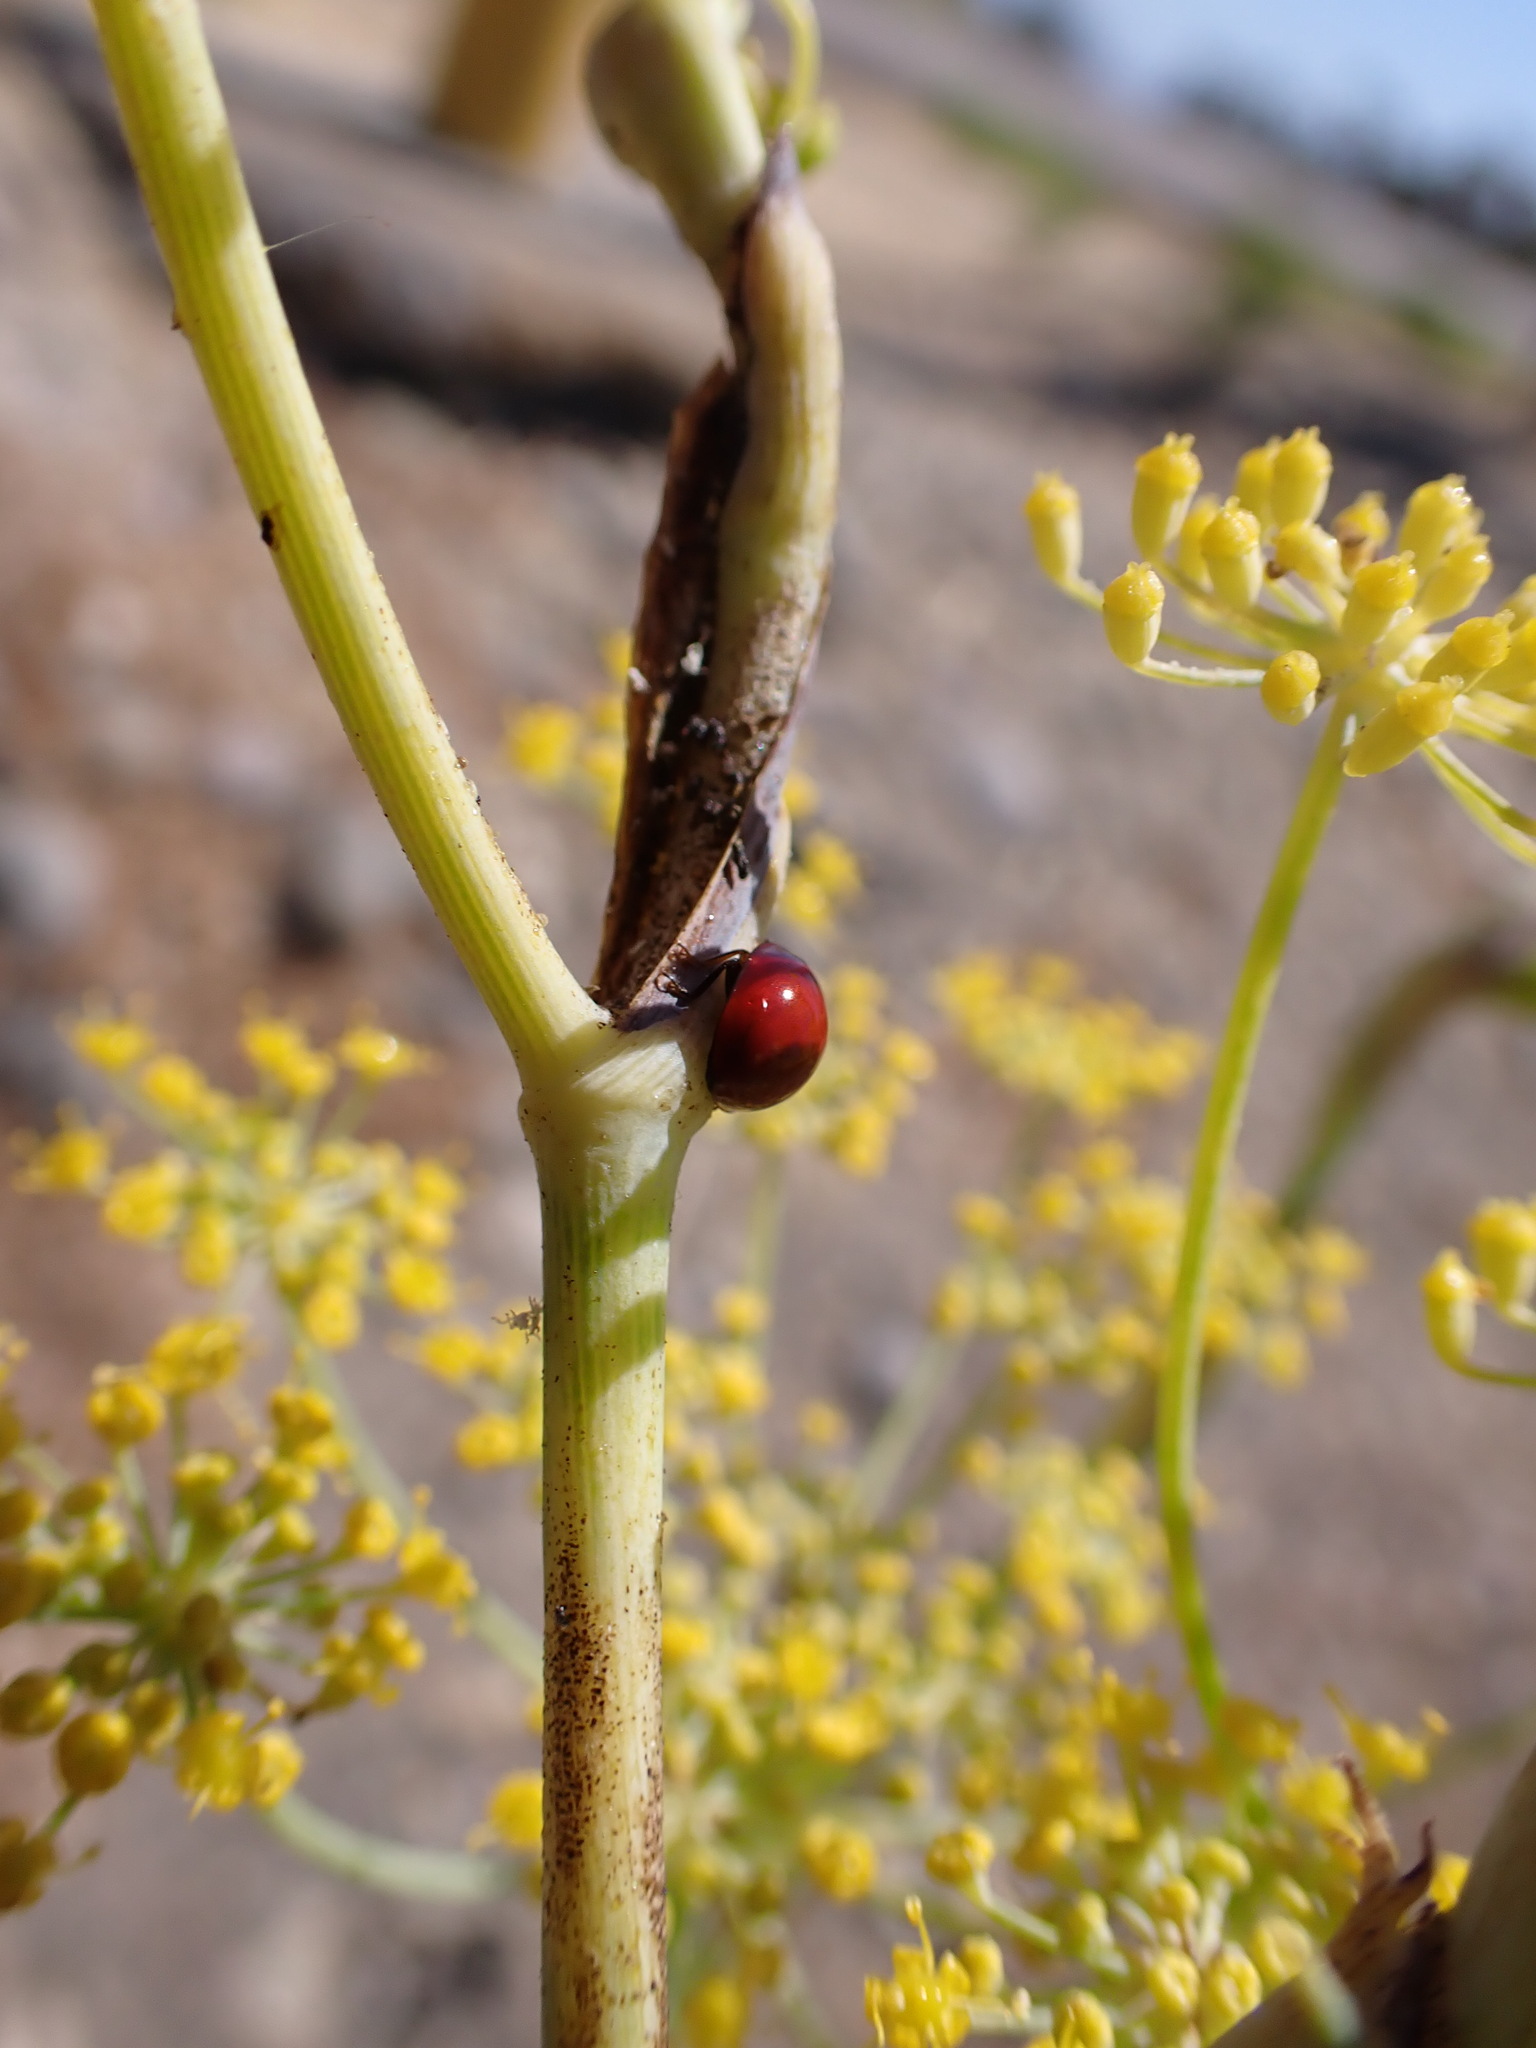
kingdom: Animalia
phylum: Arthropoda
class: Insecta
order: Coleoptera
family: Coccinellidae
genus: Cycloneda
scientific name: Cycloneda
